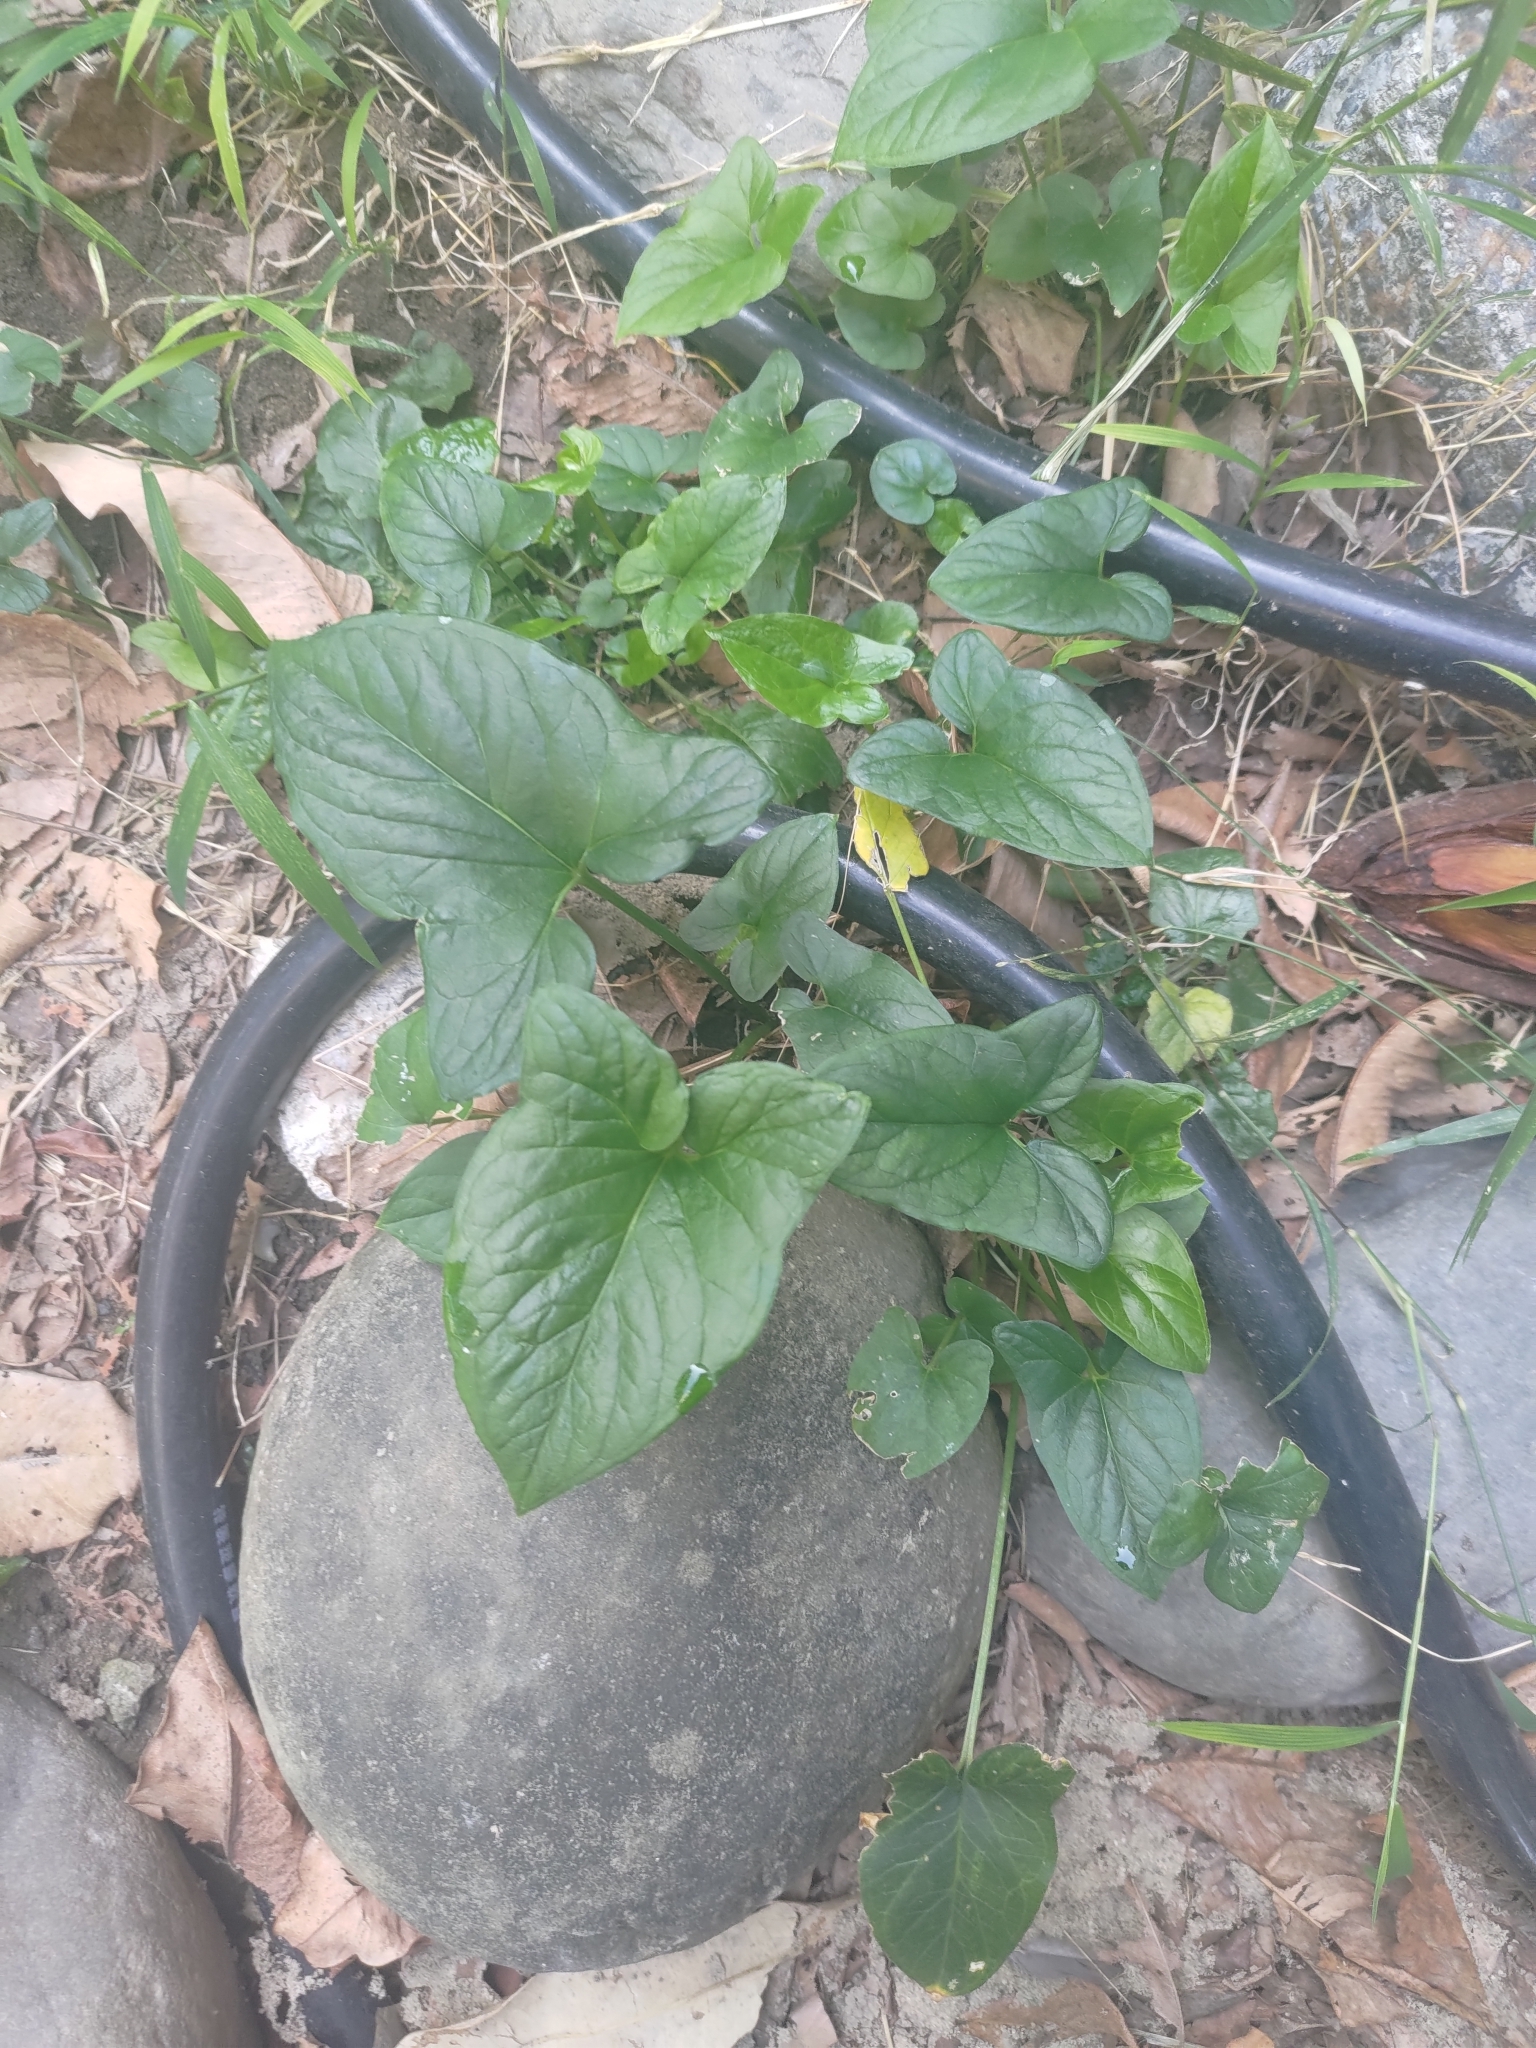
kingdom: Plantae
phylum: Tracheophyta
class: Liliopsida
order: Alismatales
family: Araceae
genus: Typhonium
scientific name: Typhonium blumei
